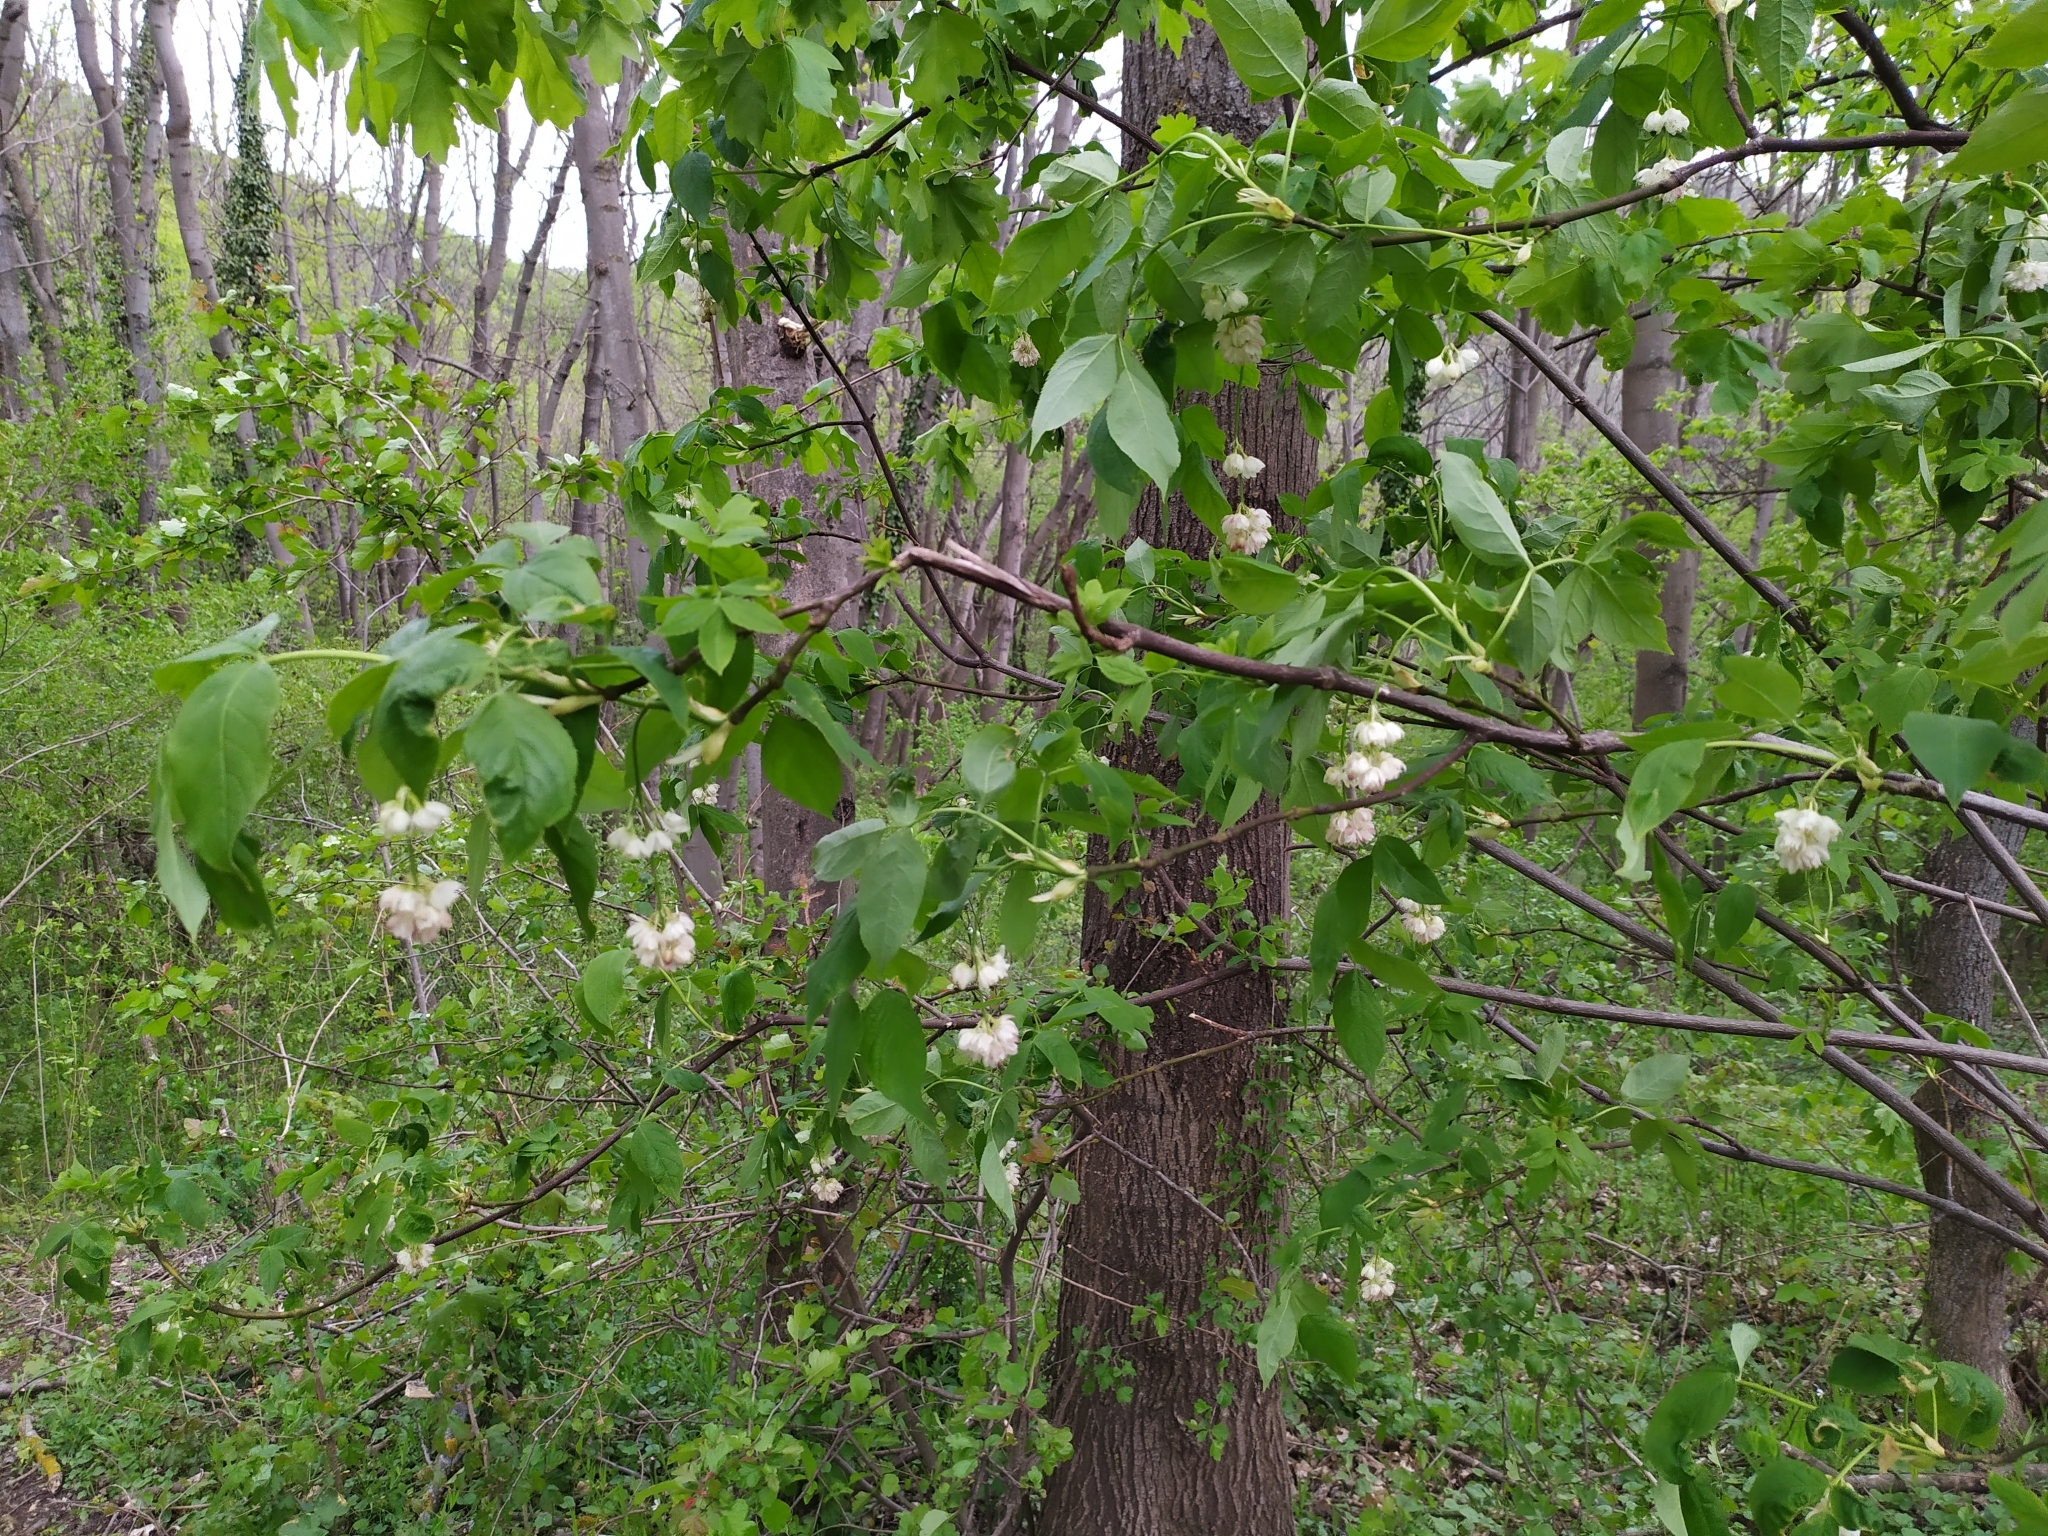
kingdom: Plantae
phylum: Tracheophyta
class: Magnoliopsida
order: Crossosomatales
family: Staphyleaceae
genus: Staphylea
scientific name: Staphylea pinnata
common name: Bladdernut
